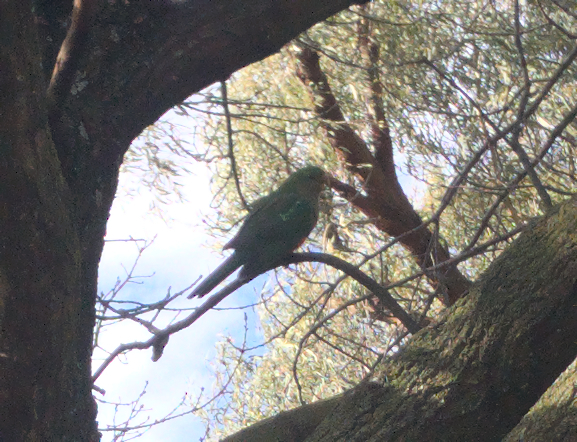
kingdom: Animalia
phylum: Chordata
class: Aves
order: Psittaciformes
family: Psittacidae
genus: Alisterus
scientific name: Alisterus scapularis
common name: Australian king parrot
